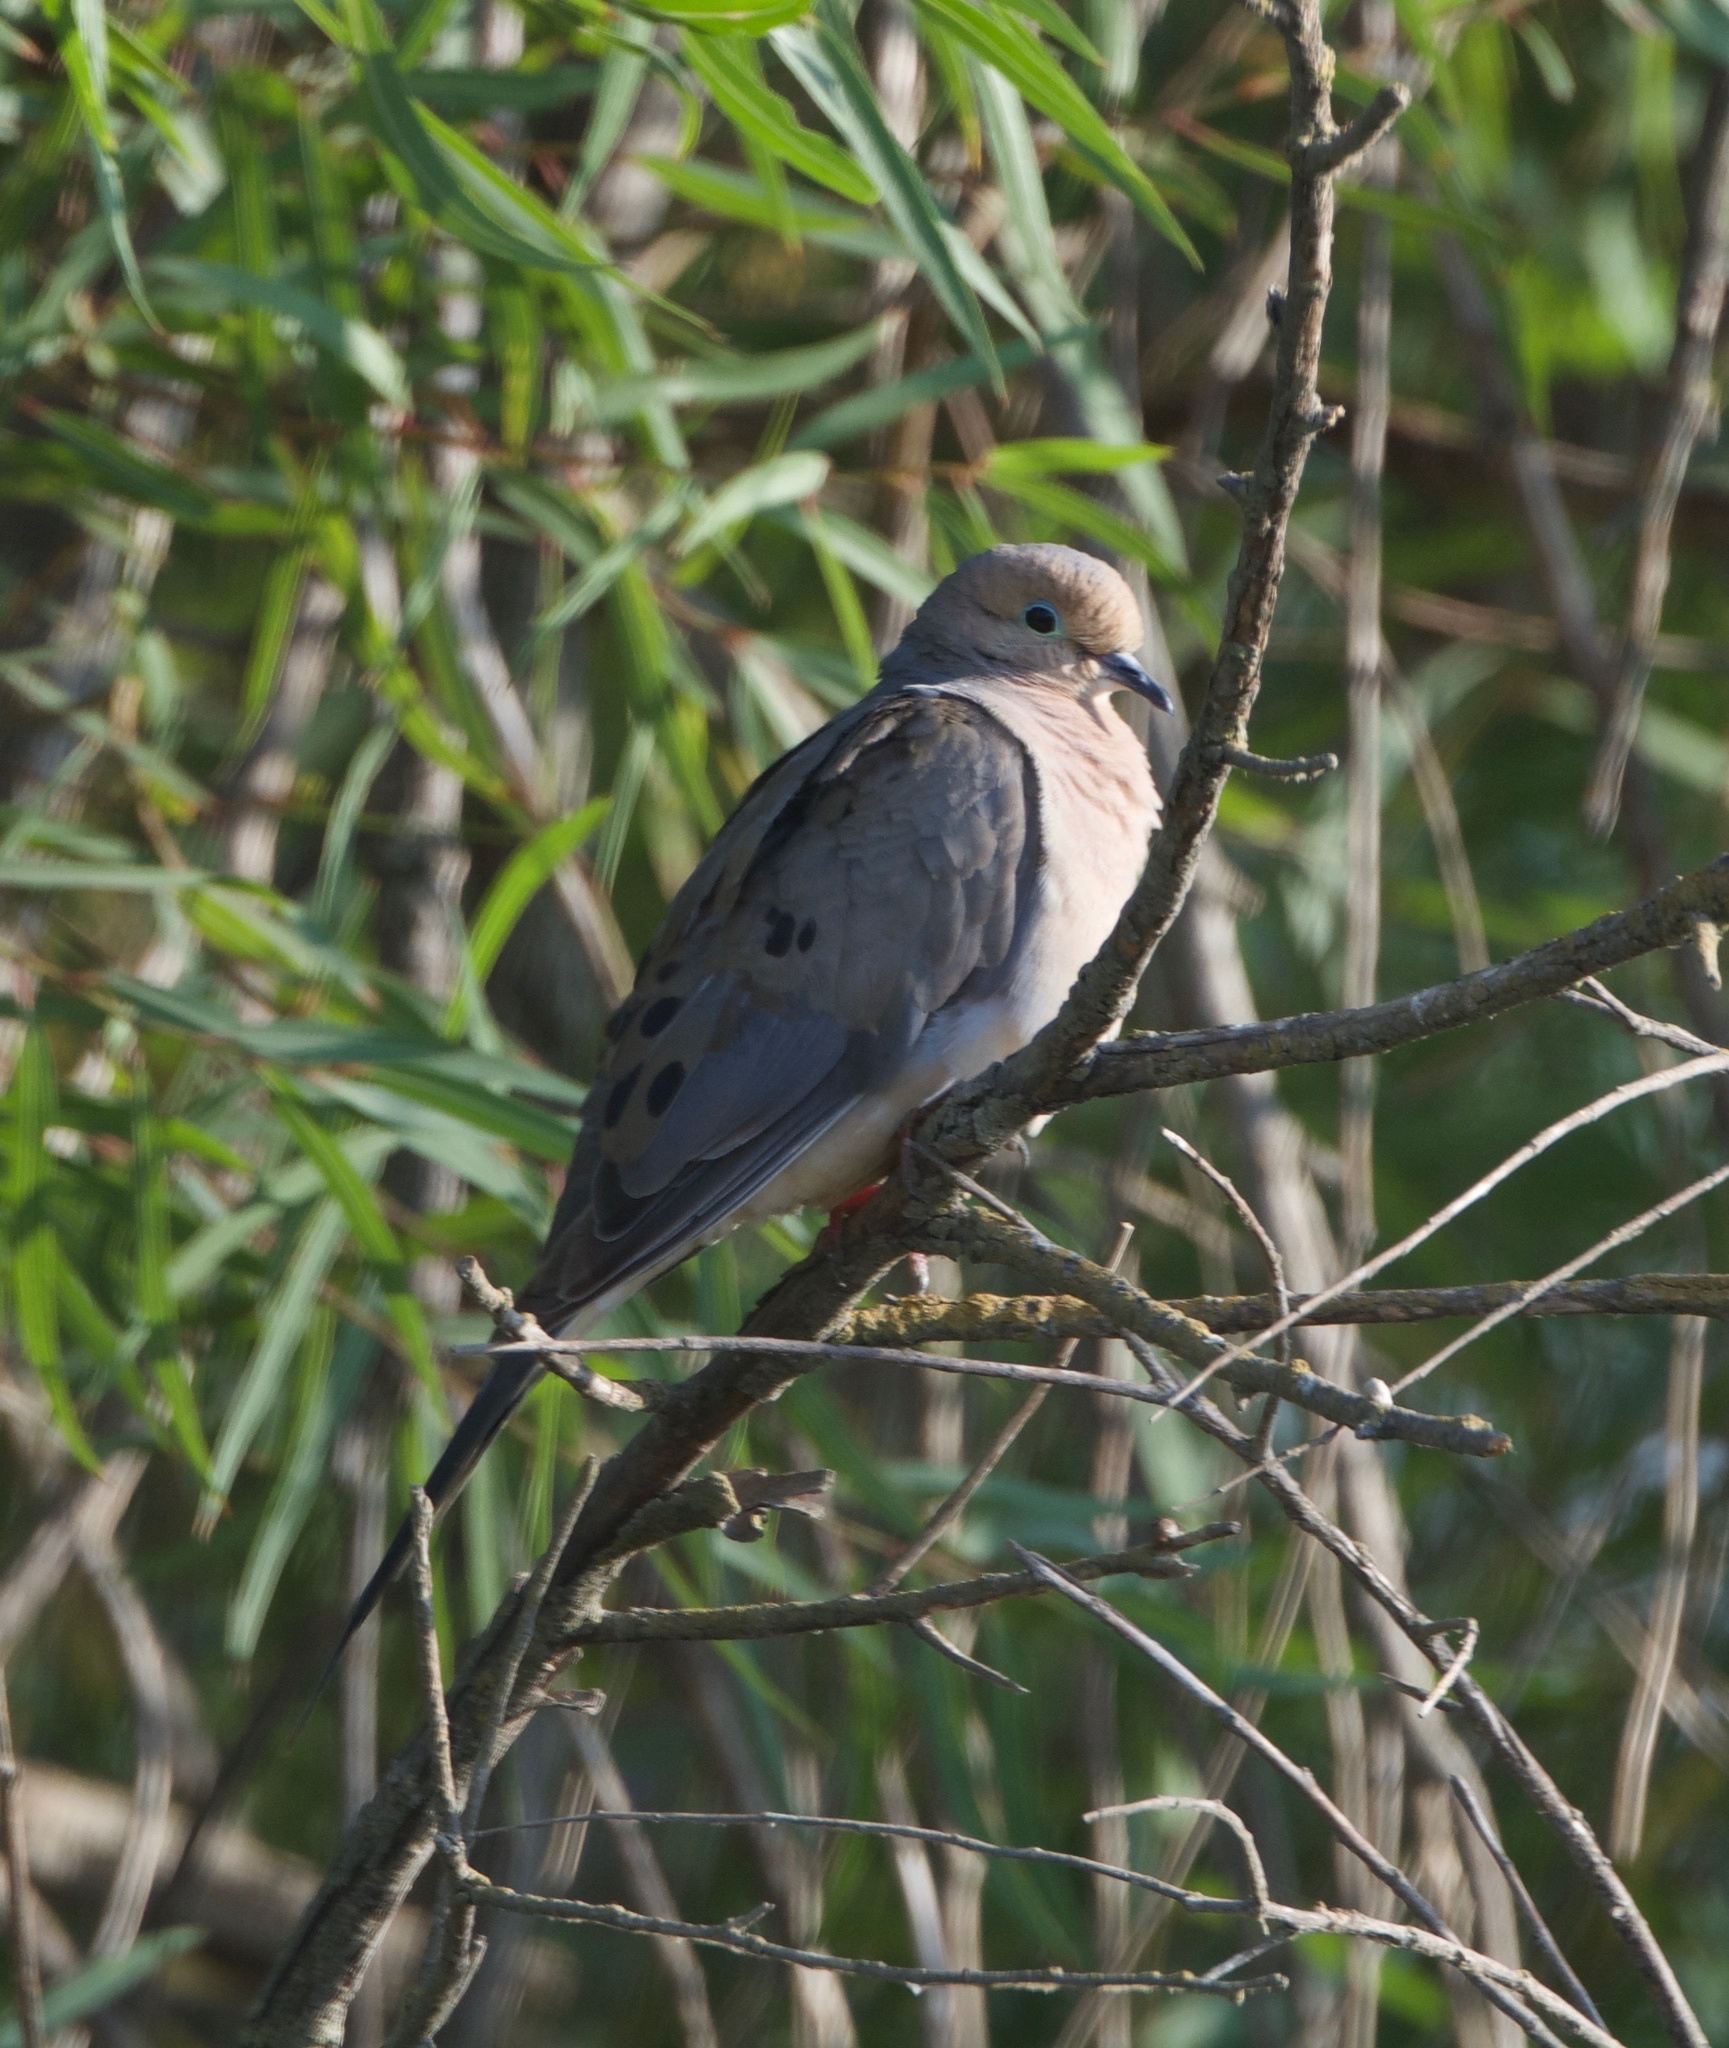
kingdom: Animalia
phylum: Chordata
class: Aves
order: Columbiformes
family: Columbidae
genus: Zenaida
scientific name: Zenaida macroura
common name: Mourning dove
